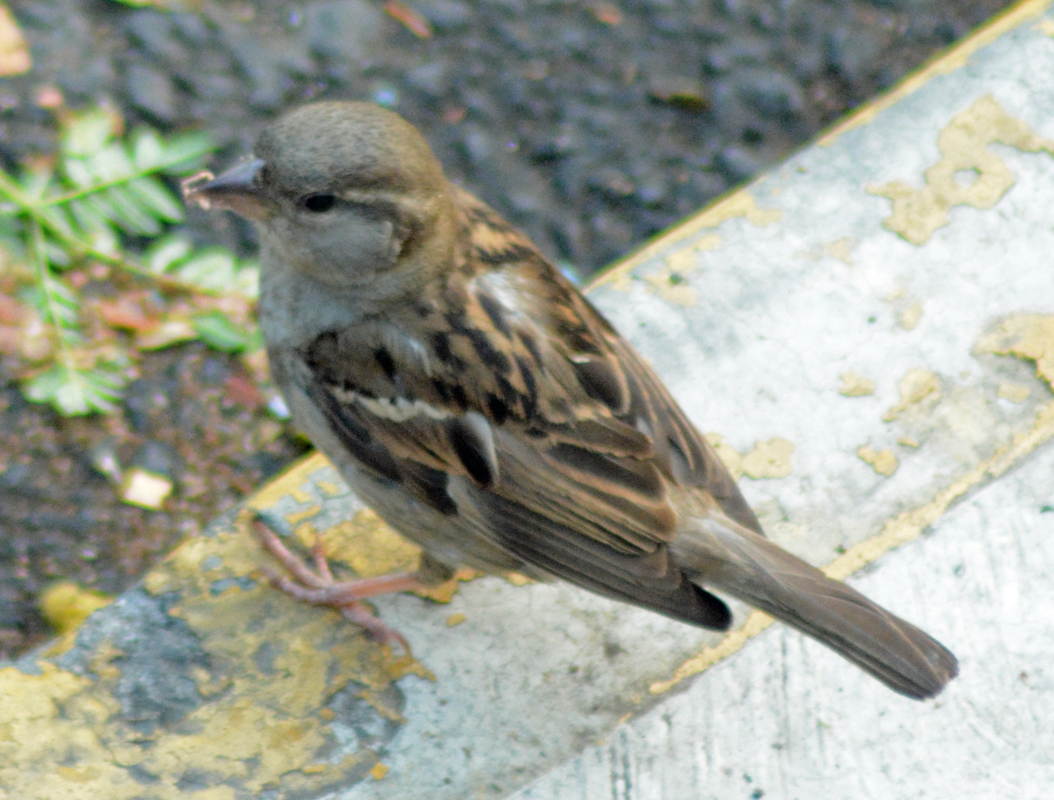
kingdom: Animalia
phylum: Chordata
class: Aves
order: Passeriformes
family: Passeridae
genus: Passer
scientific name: Passer domesticus
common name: House sparrow
